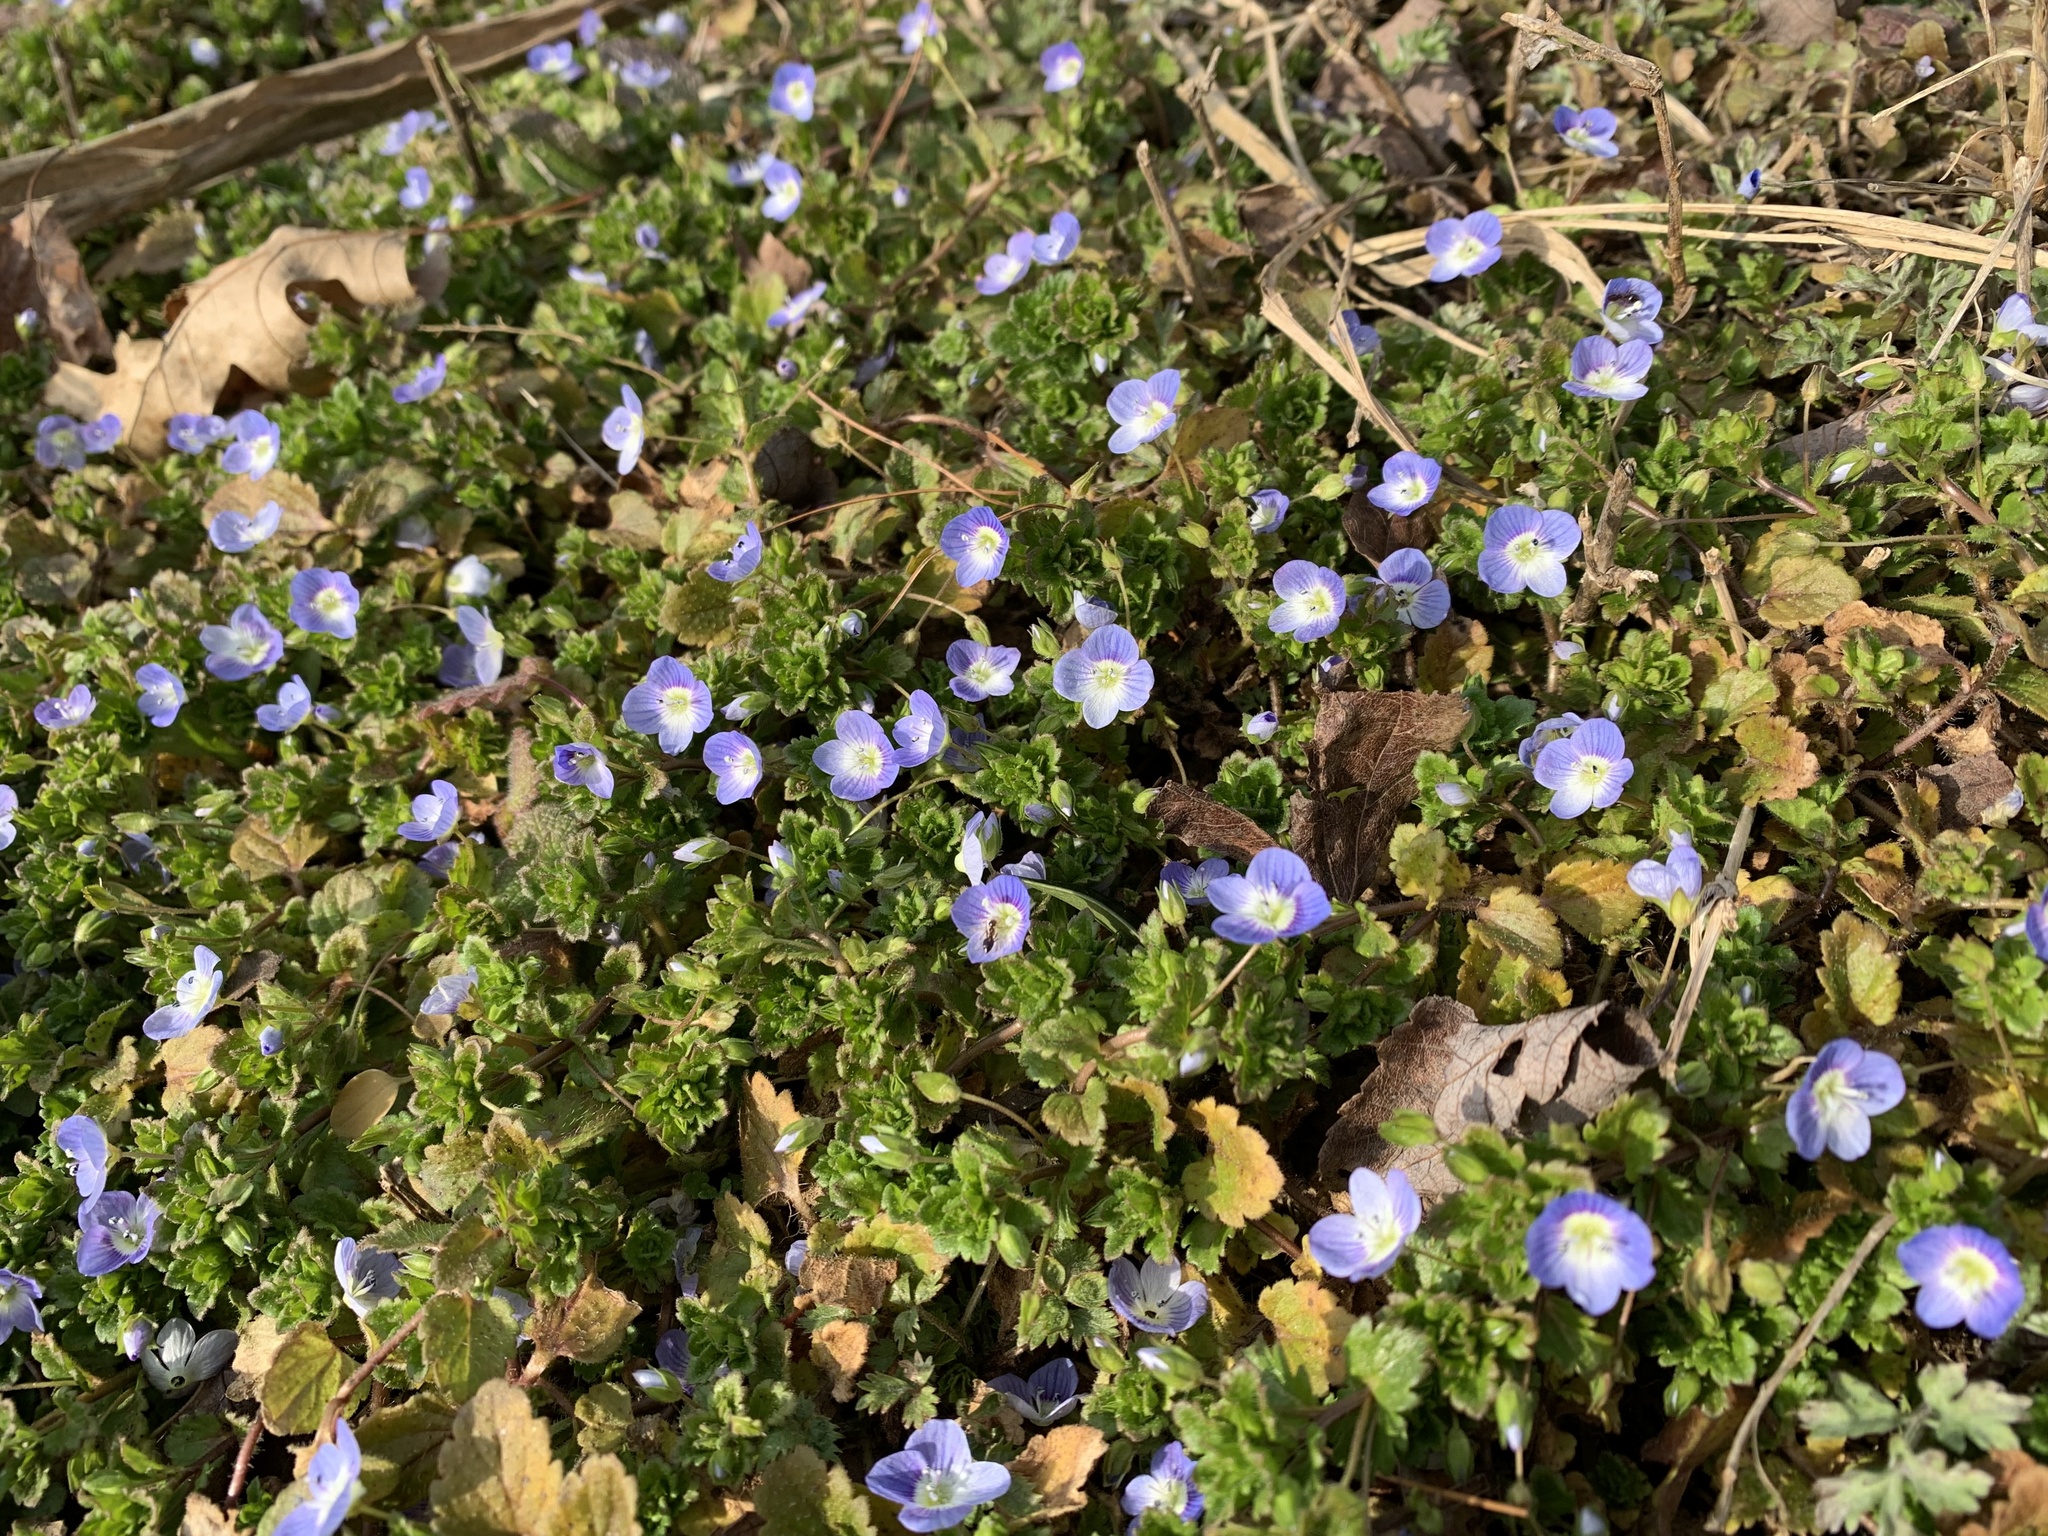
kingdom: Plantae
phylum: Tracheophyta
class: Magnoliopsida
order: Lamiales
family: Plantaginaceae
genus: Veronica
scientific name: Veronica persica
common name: Common field-speedwell
